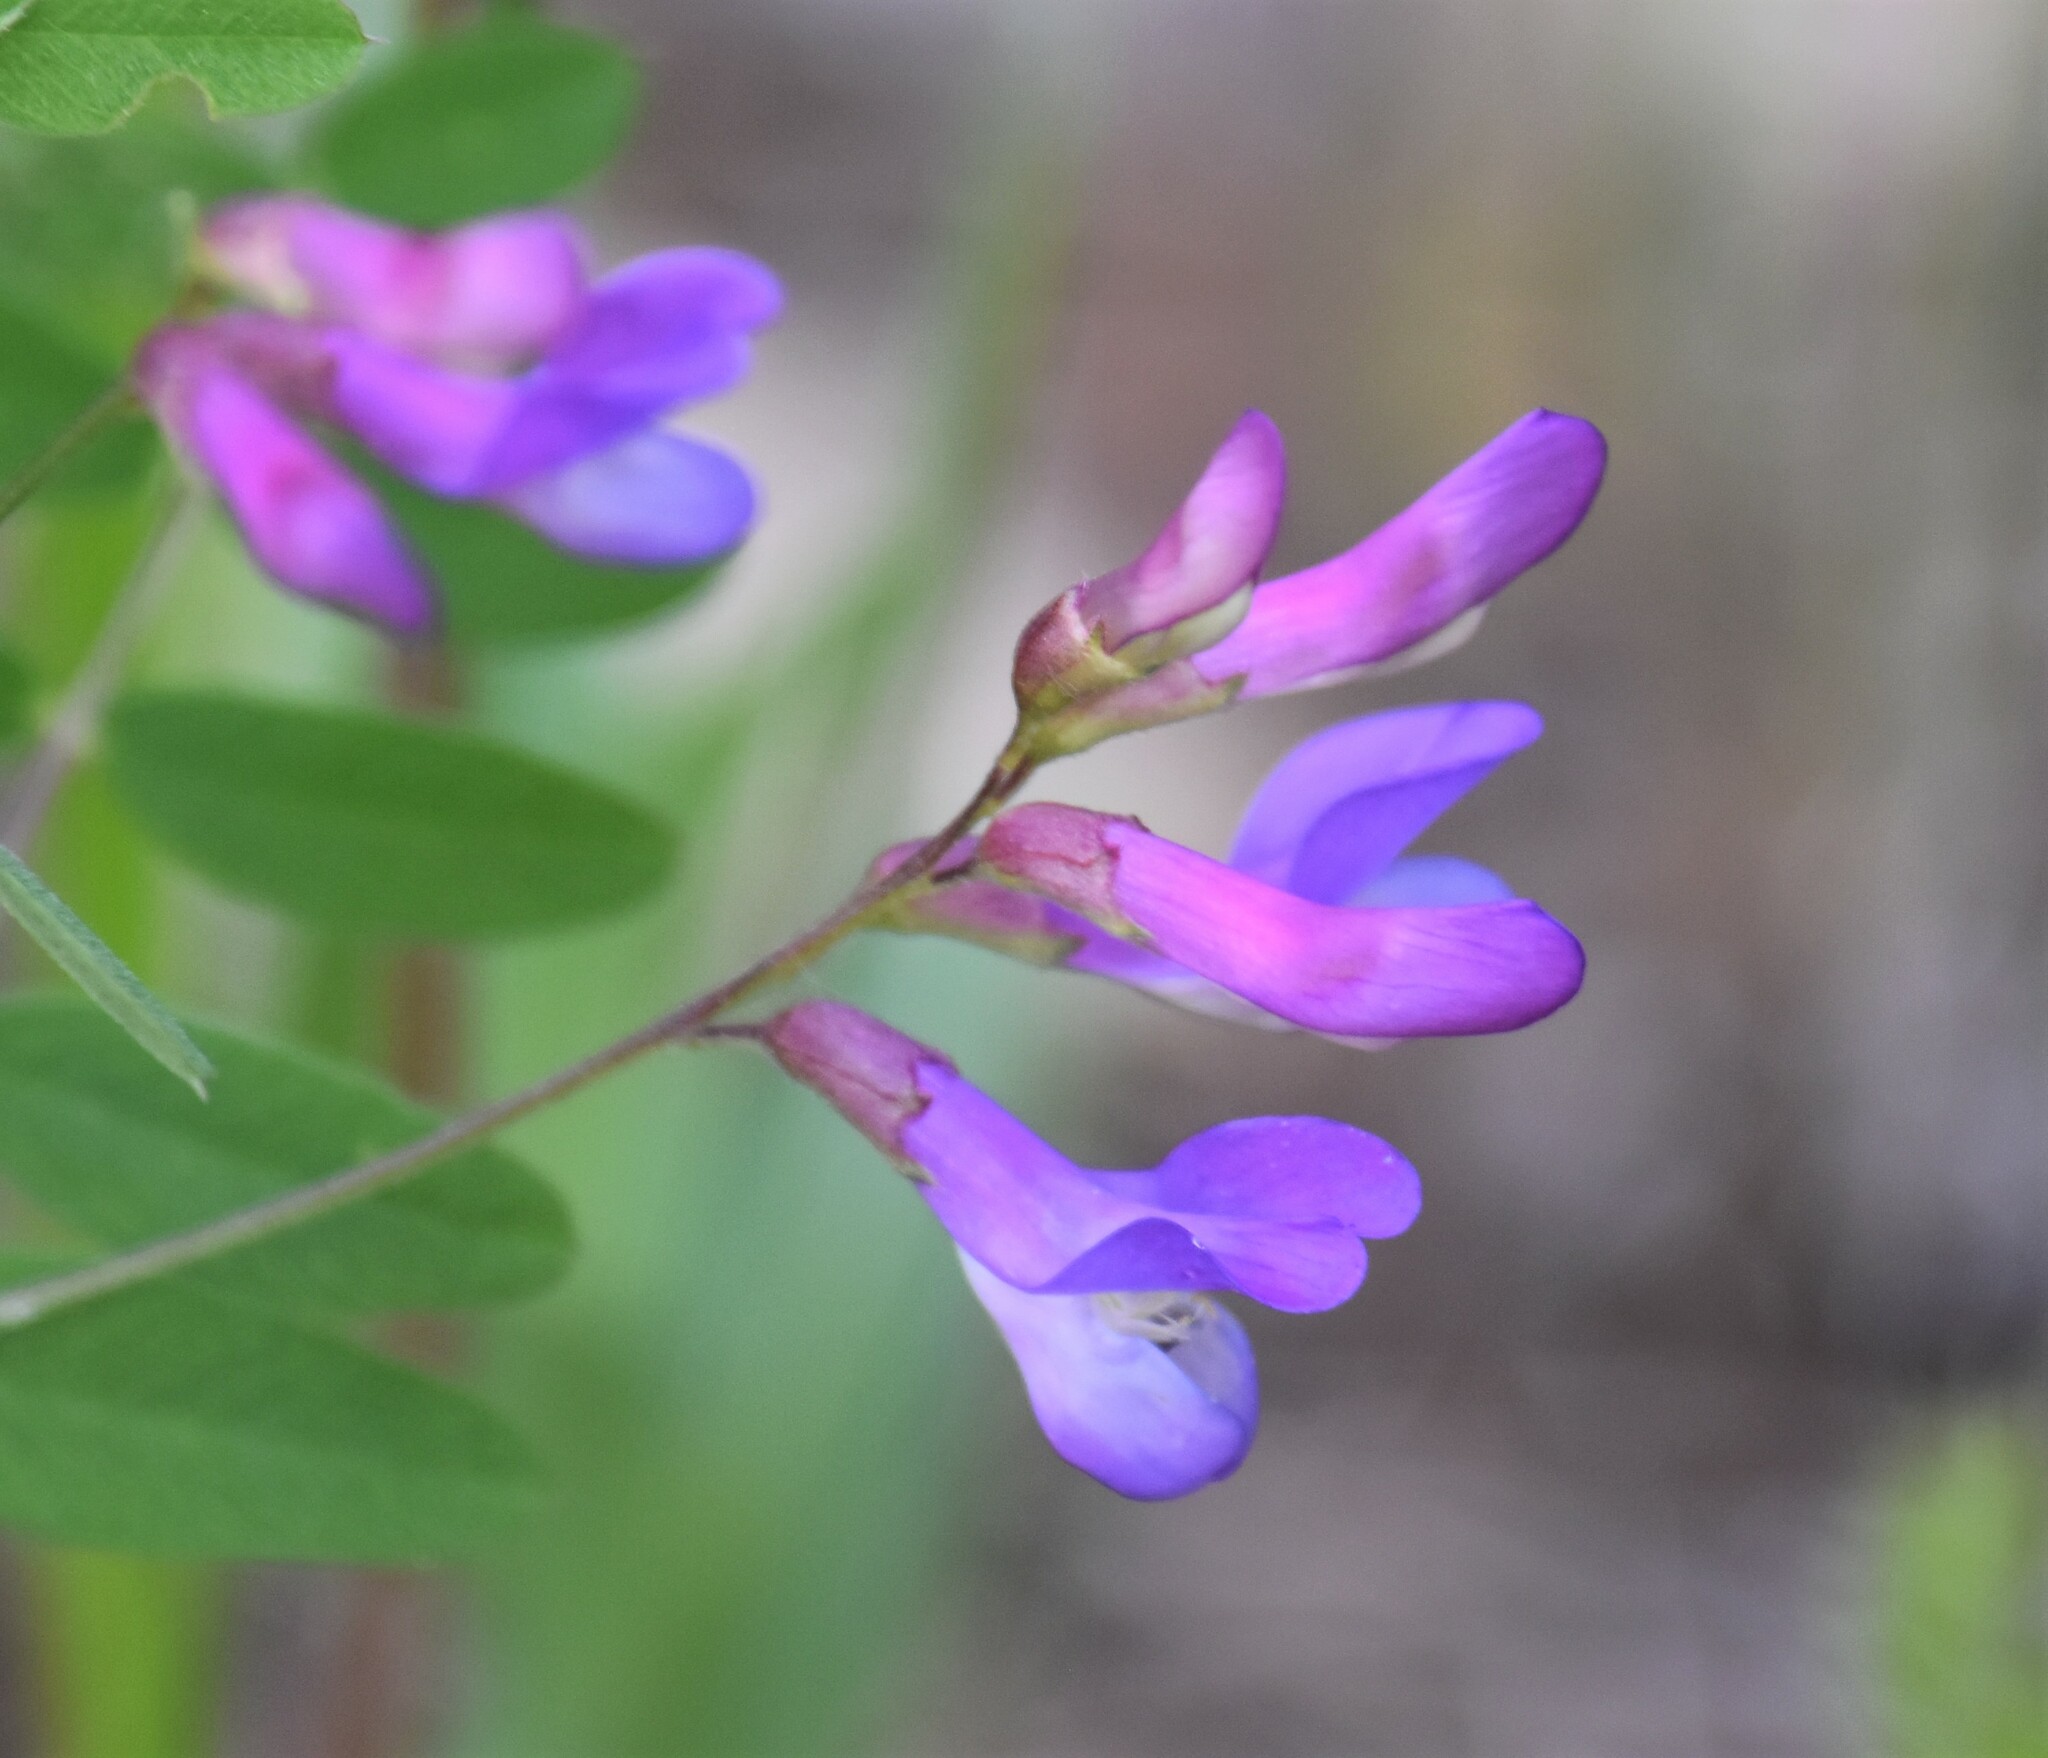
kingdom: Plantae
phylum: Tracheophyta
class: Magnoliopsida
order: Fabales
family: Fabaceae
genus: Vicia
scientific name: Vicia americana
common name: American vetch
